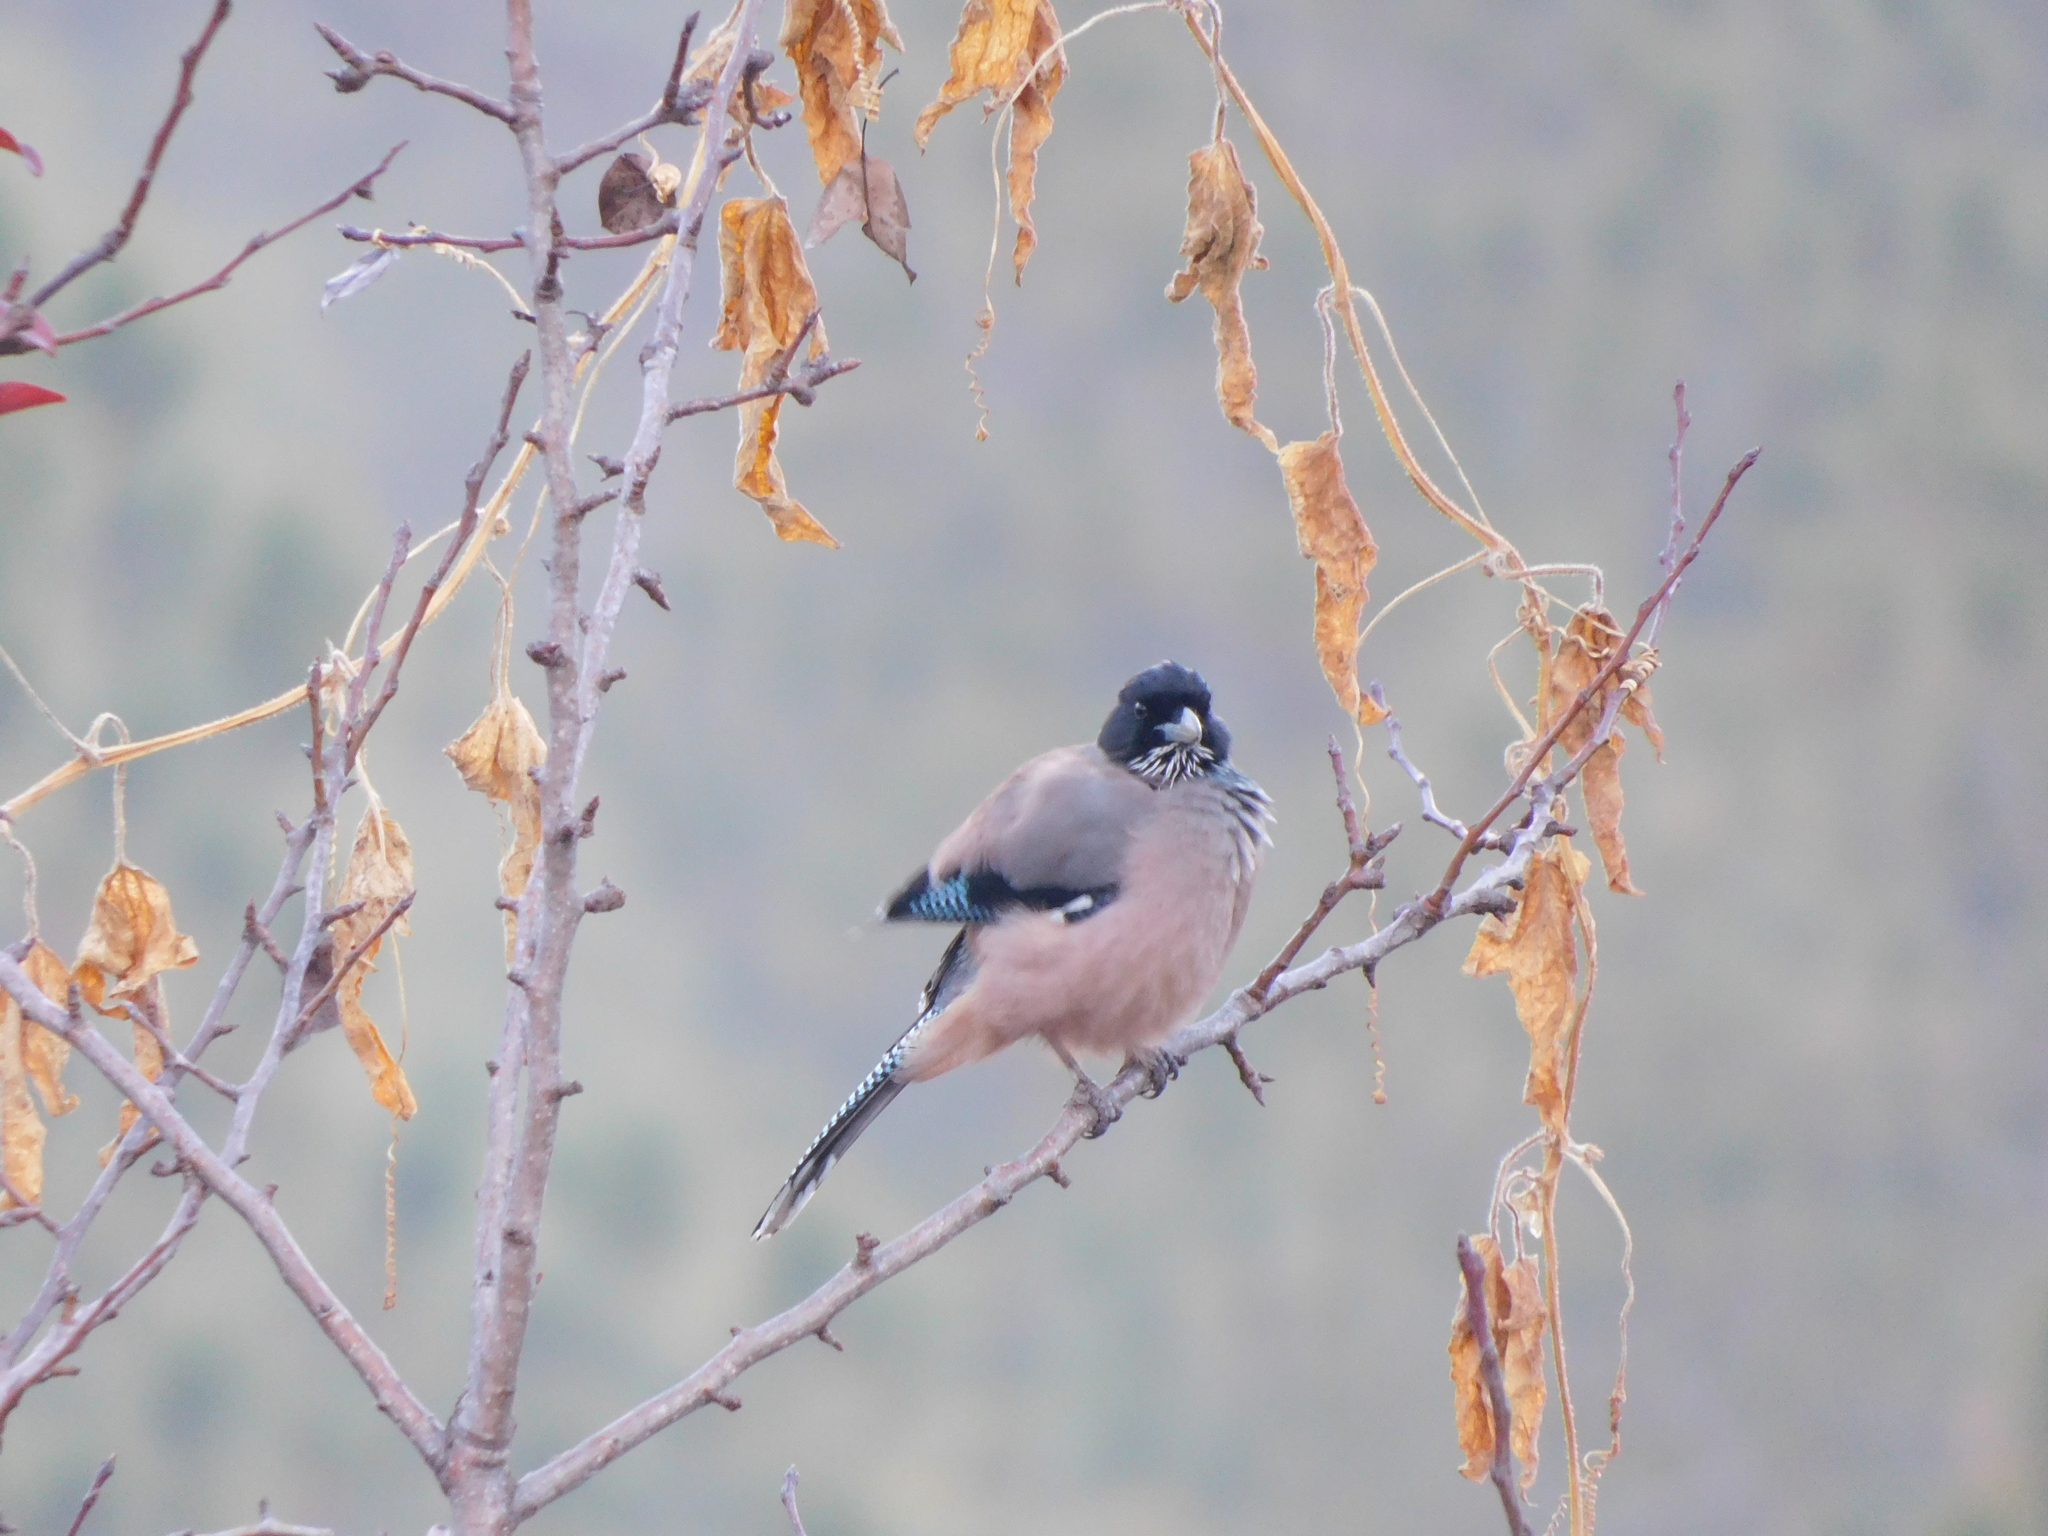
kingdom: Animalia
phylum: Chordata
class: Aves
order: Passeriformes
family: Corvidae
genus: Garrulus
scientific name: Garrulus lanceolatus
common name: Black-headed jay
